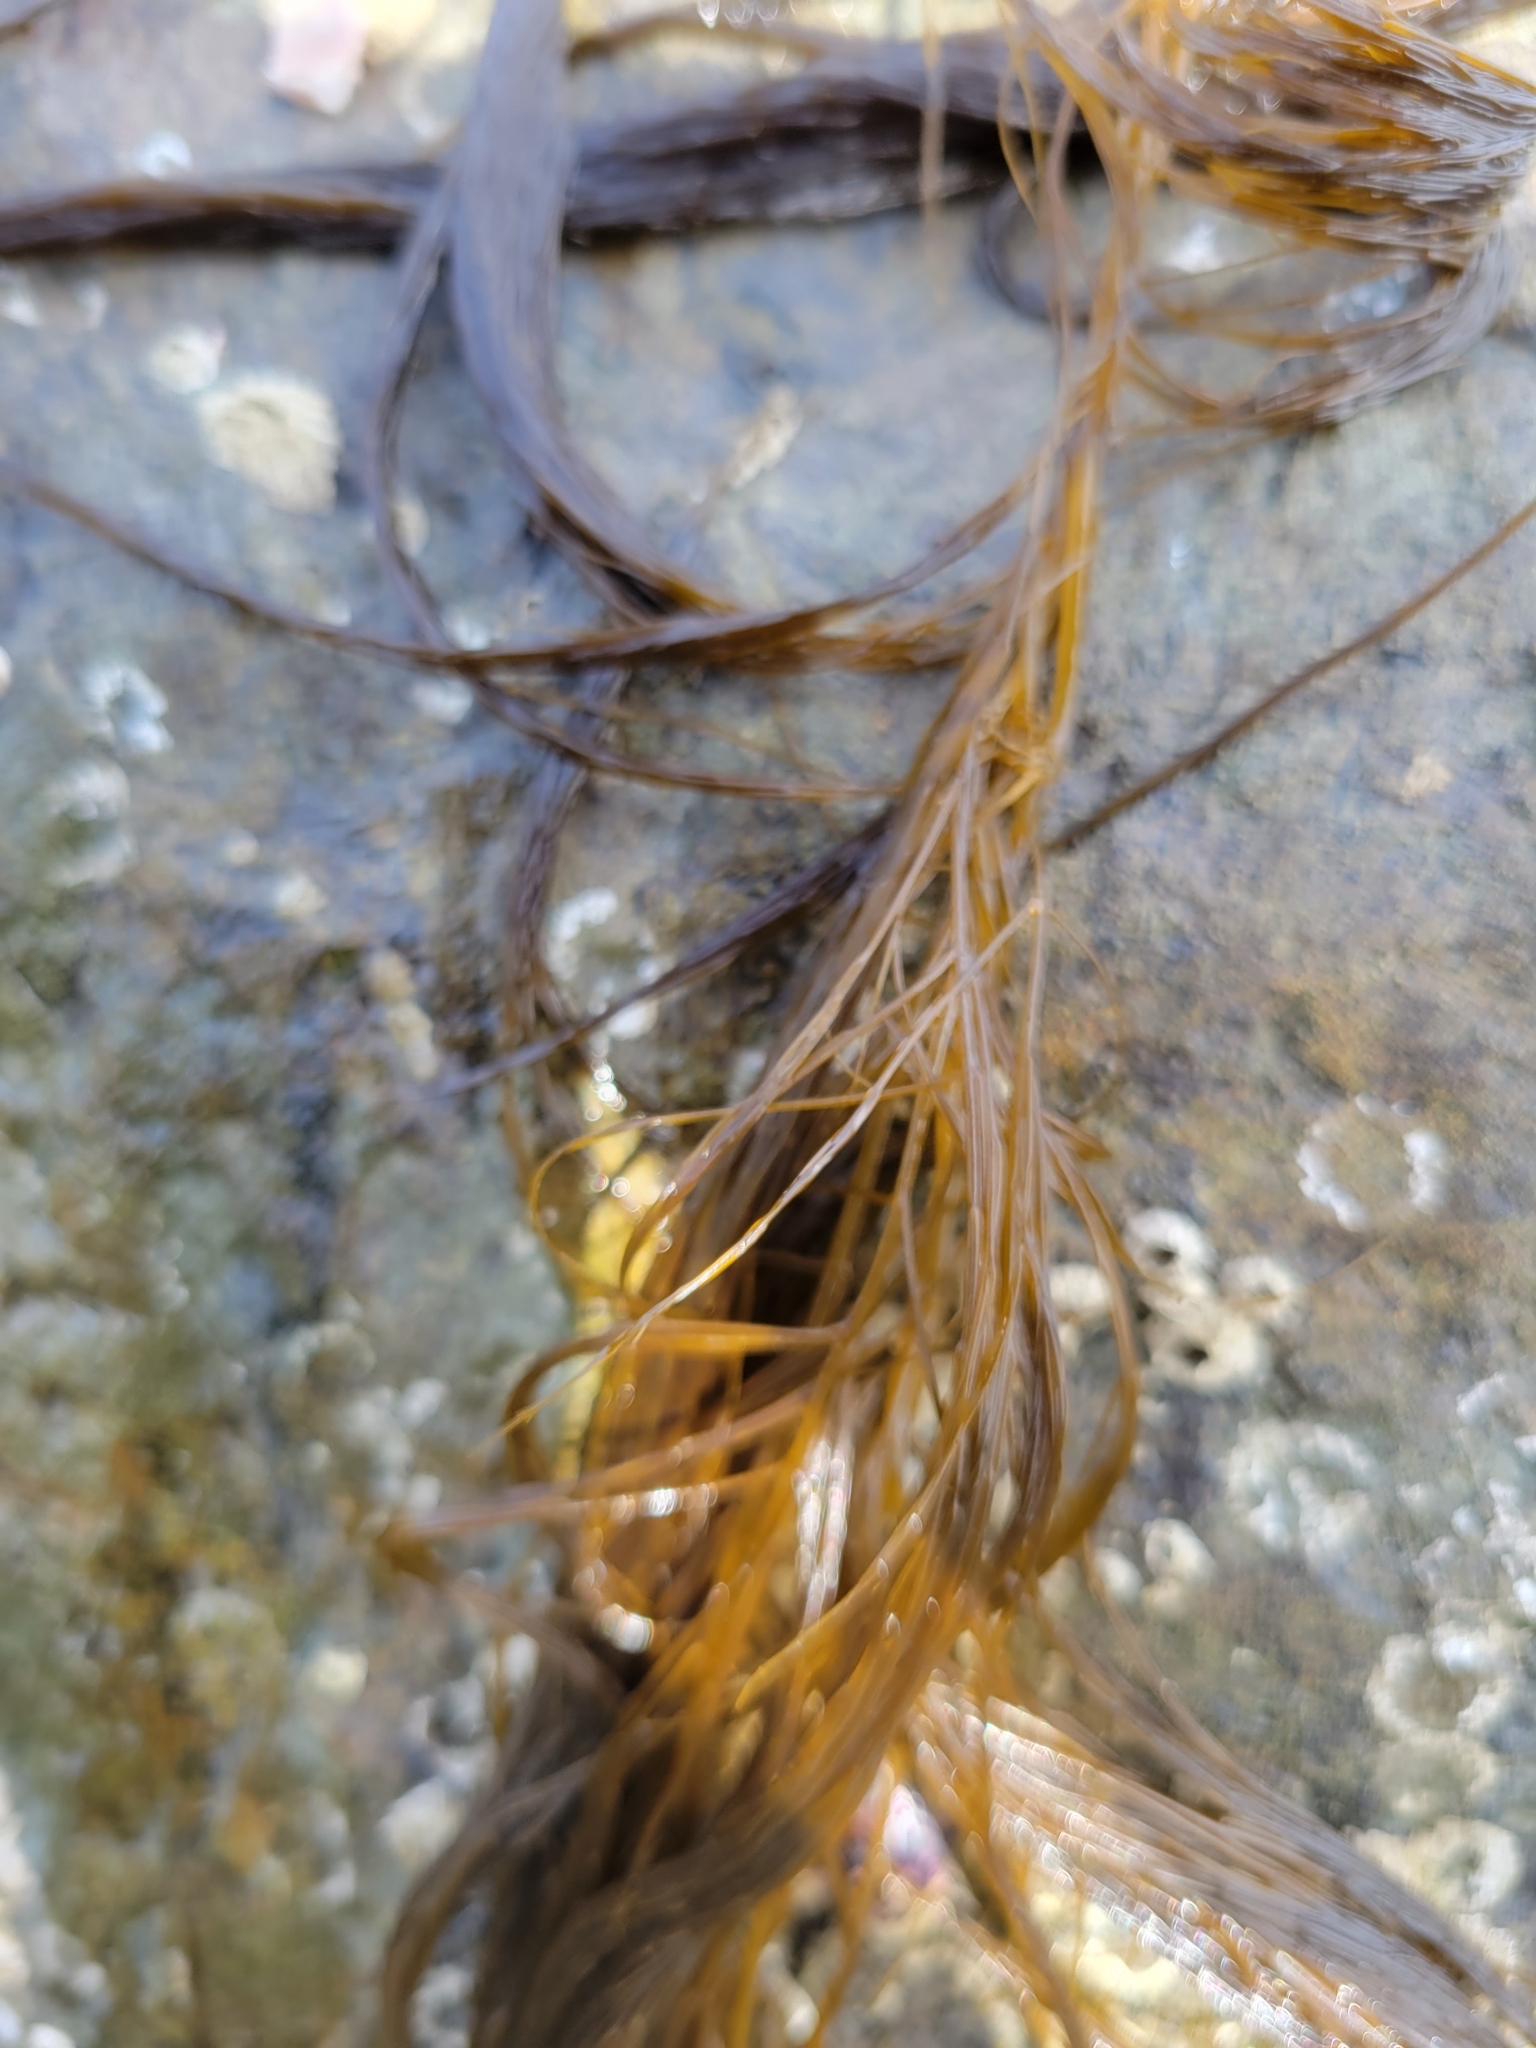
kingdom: Chromista
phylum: Ochrophyta
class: Phaeophyceae
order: Desmarestiales
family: Desmarestiaceae
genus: Desmarestia
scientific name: Desmarestia viridis
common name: Stringy acid kelp
